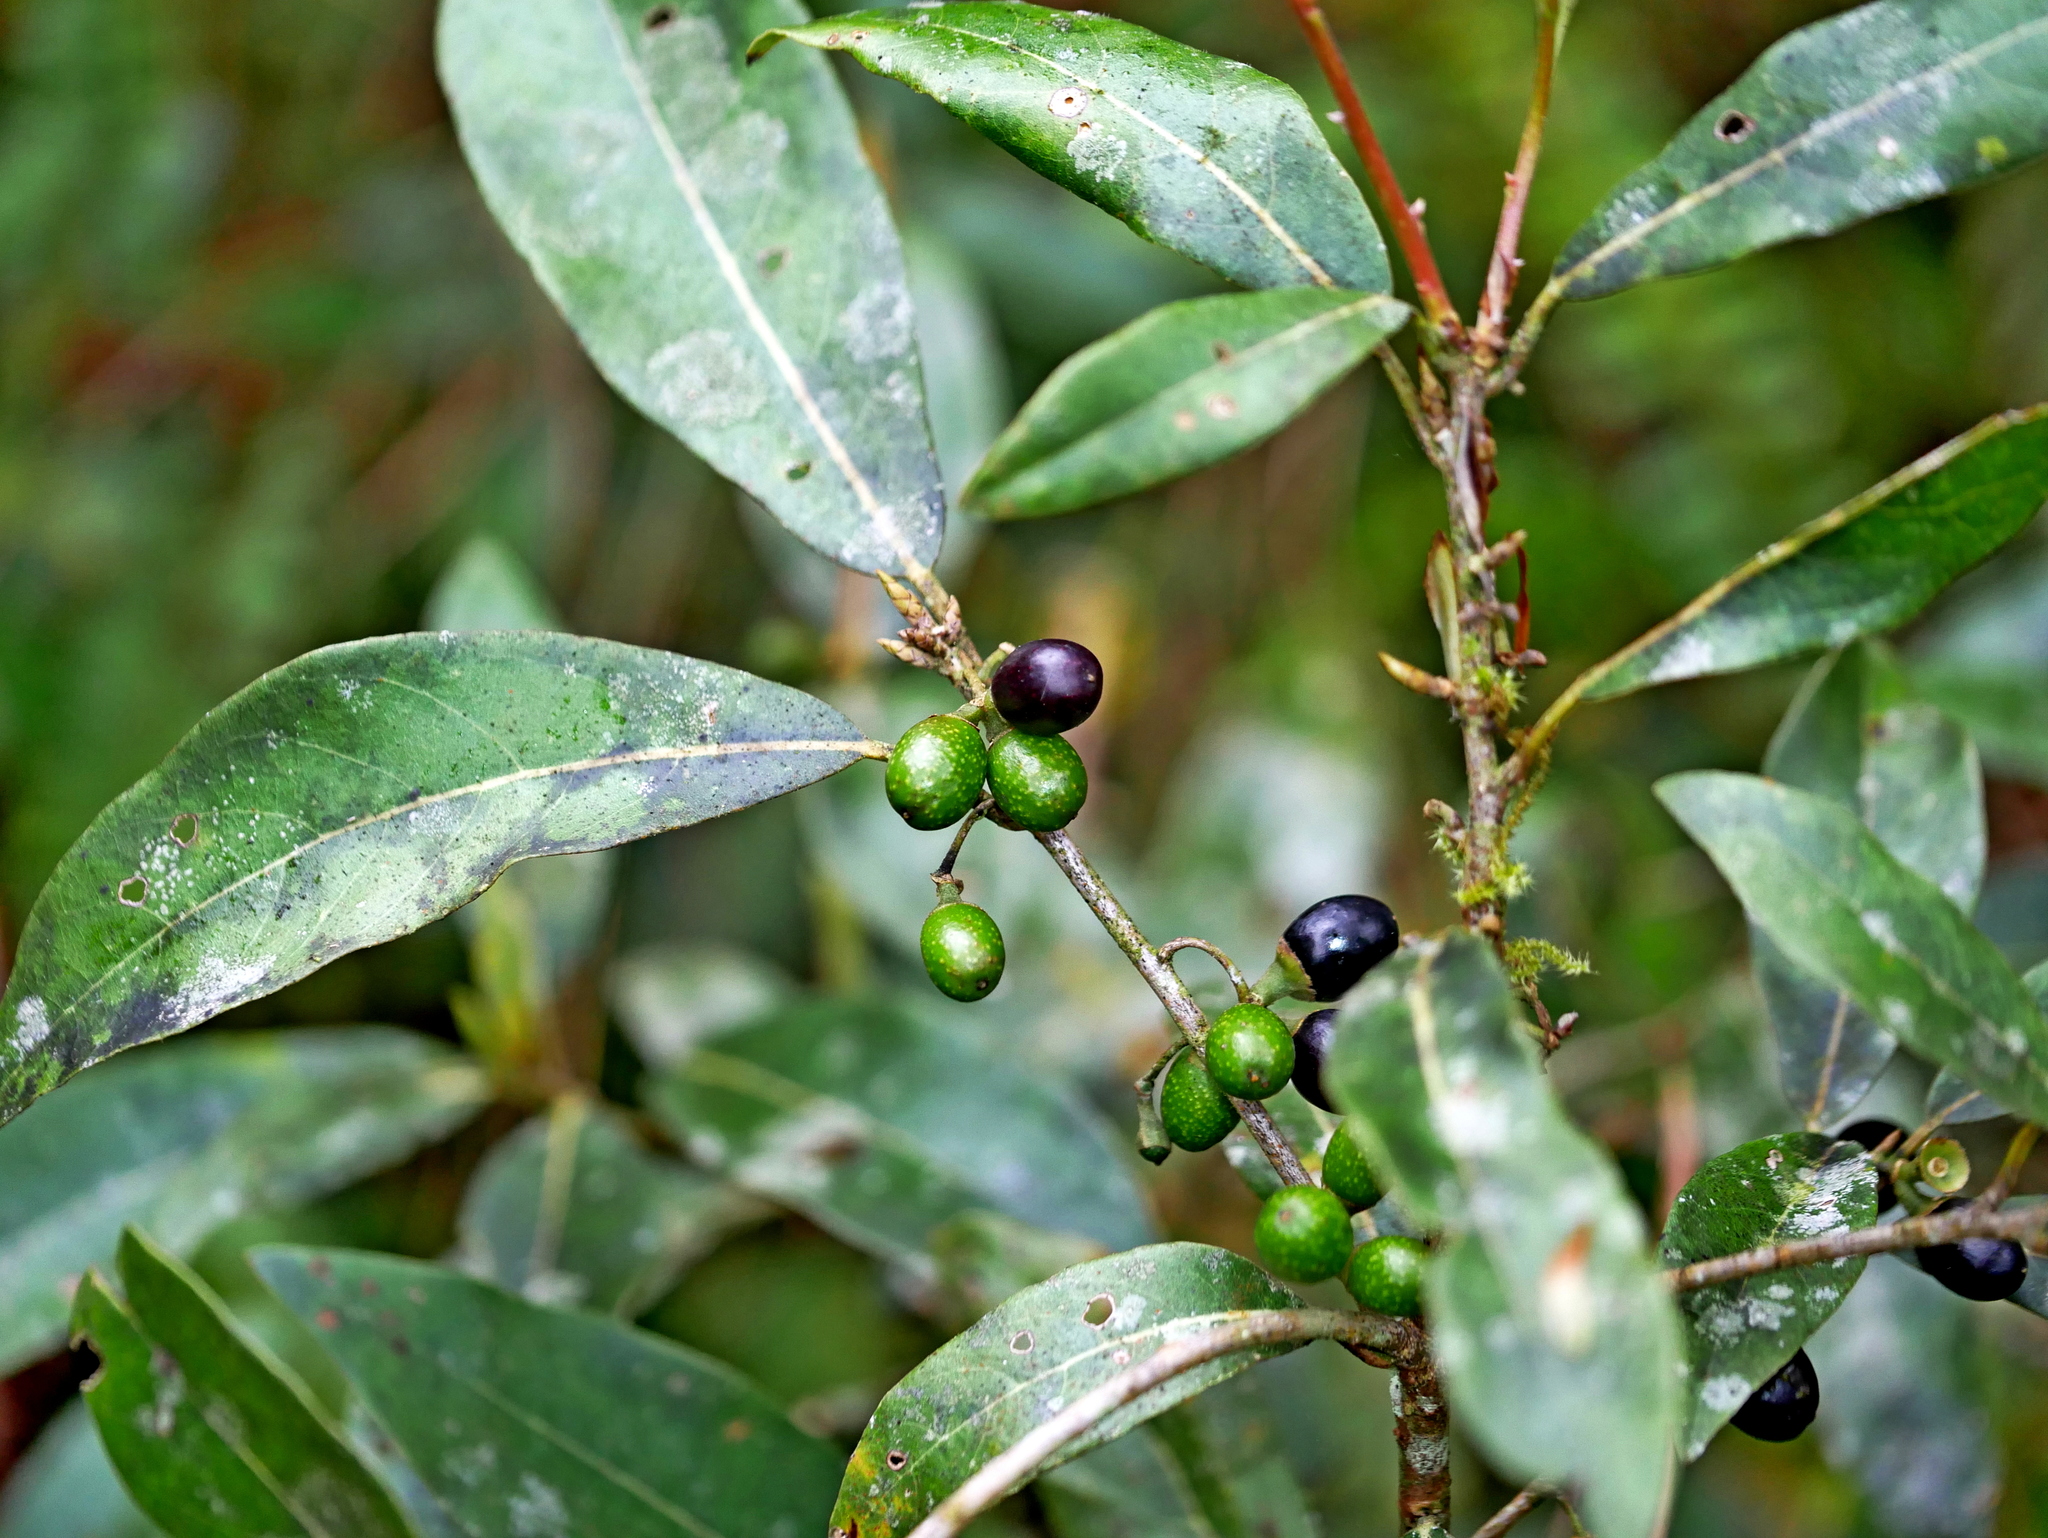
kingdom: Plantae
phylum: Tracheophyta
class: Magnoliopsida
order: Laurales
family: Lauraceae
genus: Litsea
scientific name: Litsea morrisonensis
